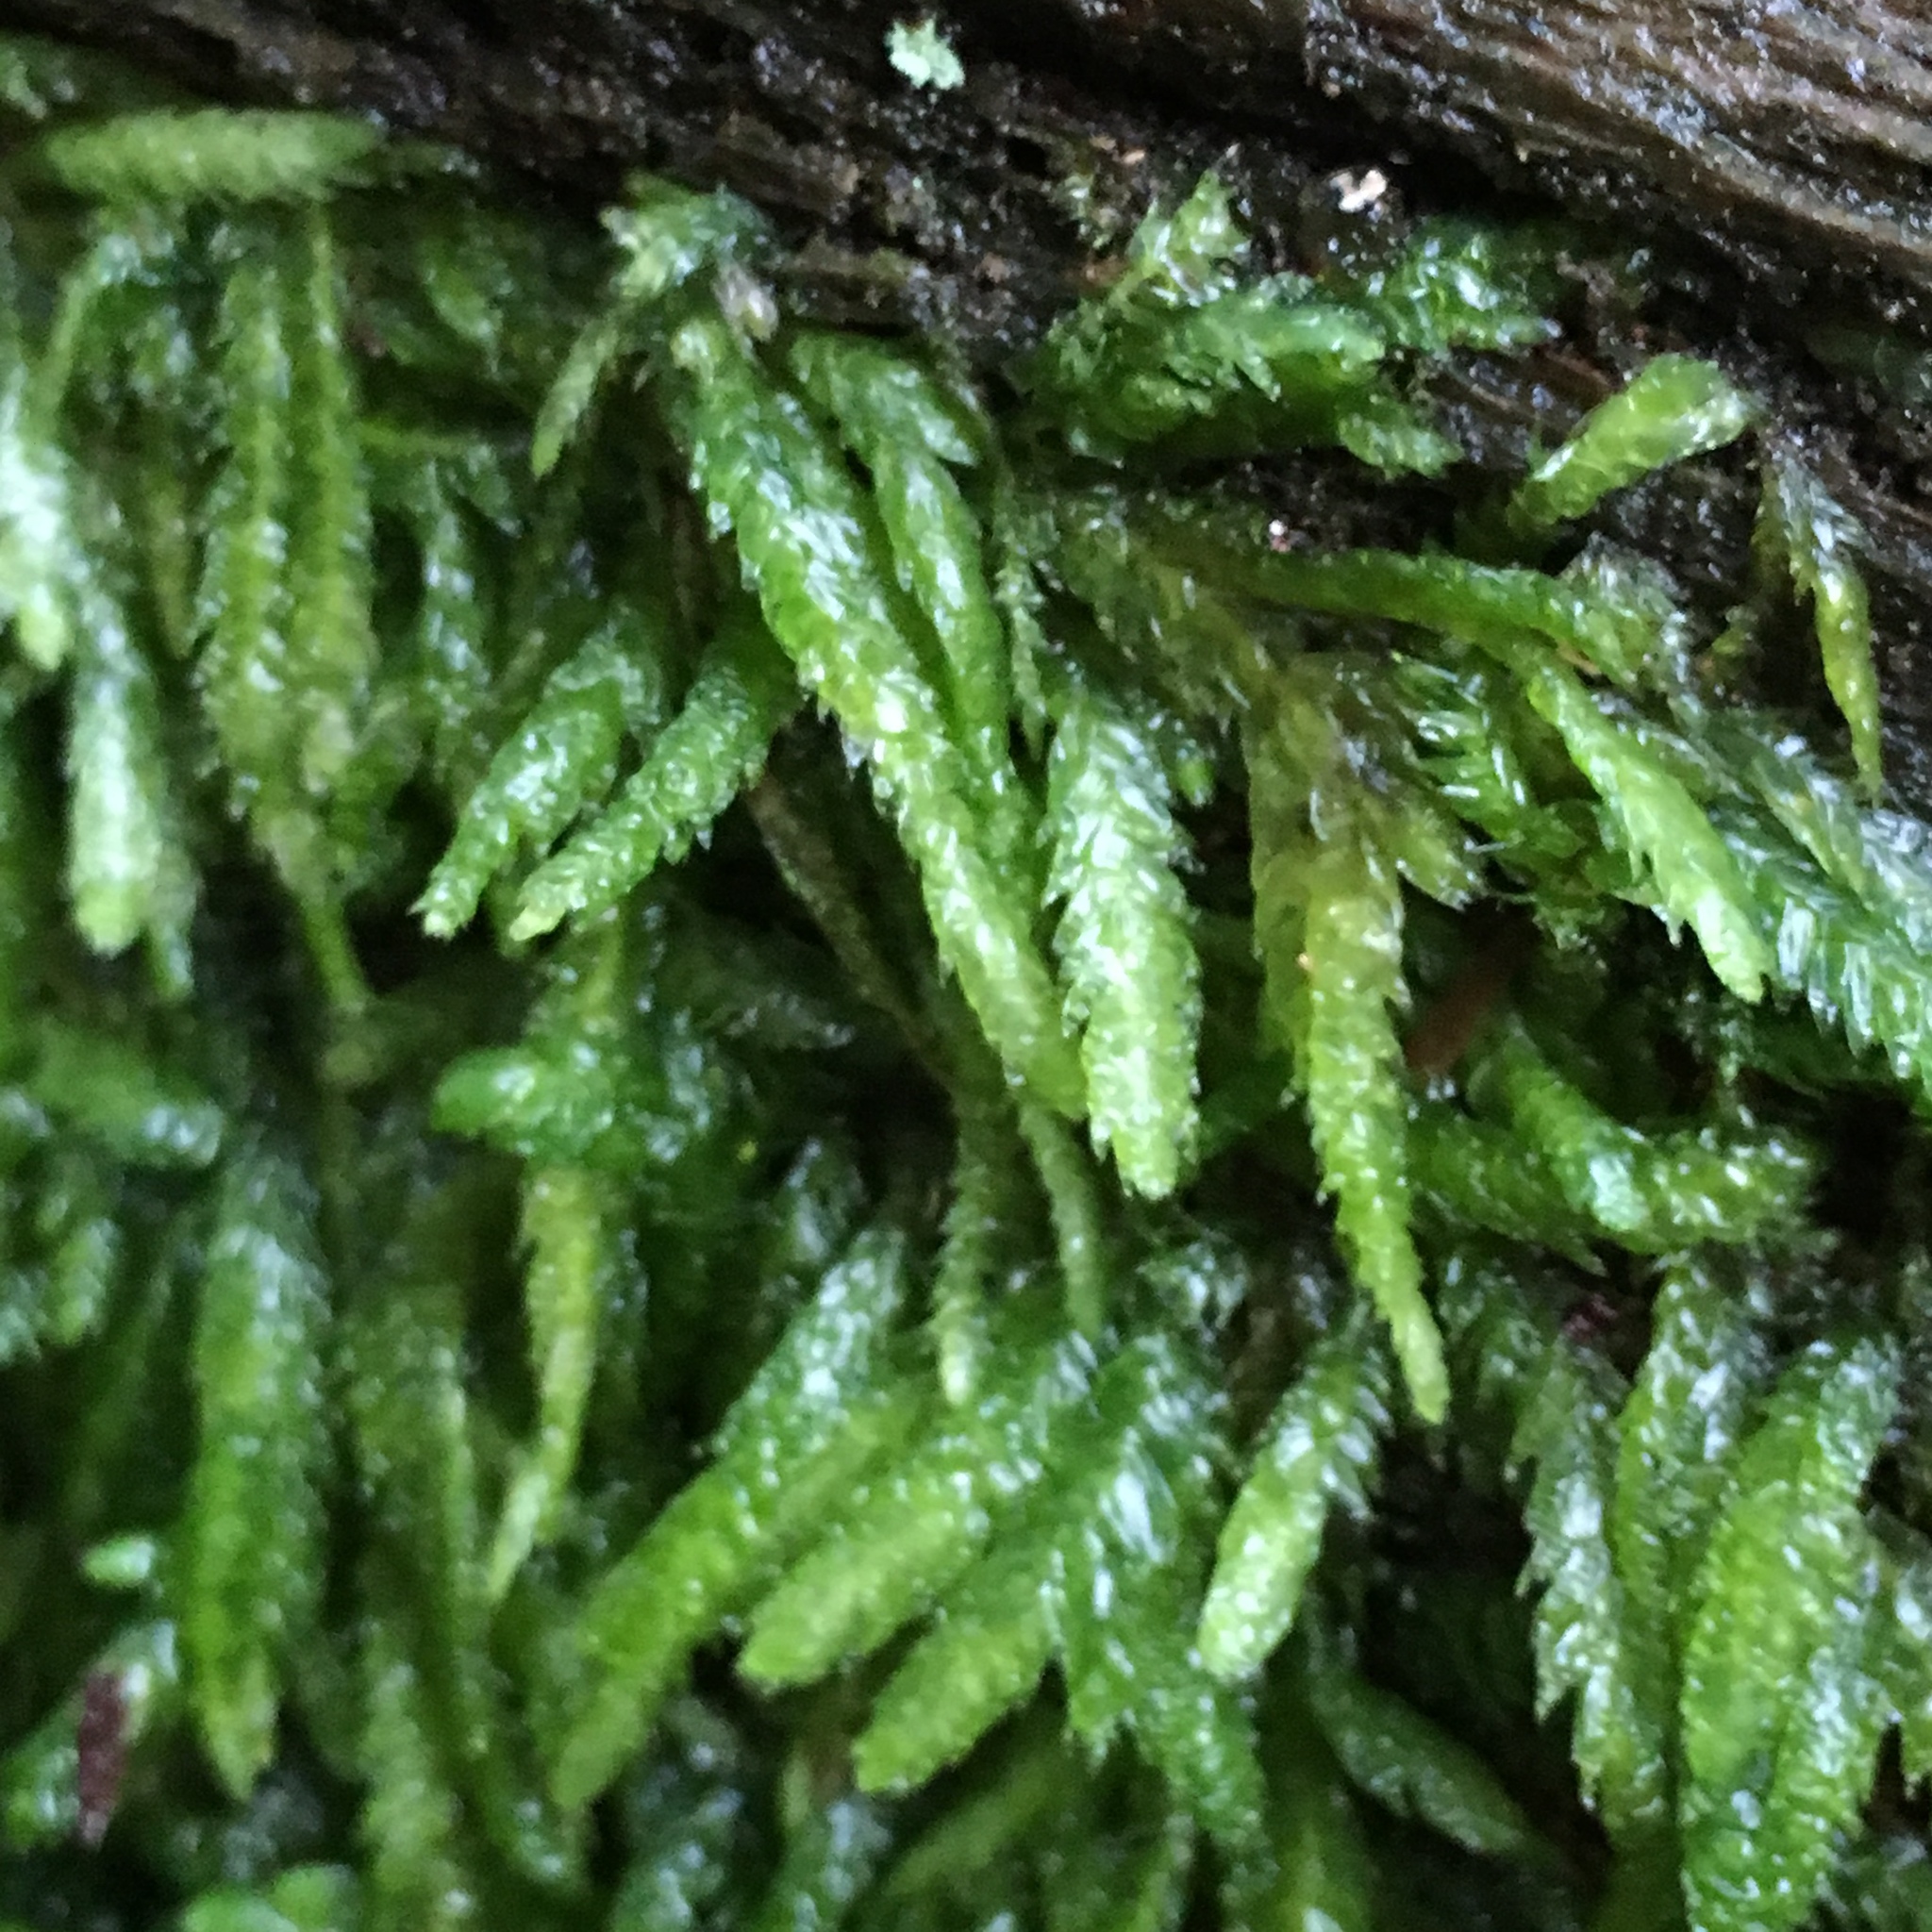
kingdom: Plantae
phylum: Bryophyta
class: Bryopsida
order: Hypnales
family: Plagiotheciaceae
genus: Plagiothecium
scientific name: Plagiothecium undulatum
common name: Waved silk-moss
